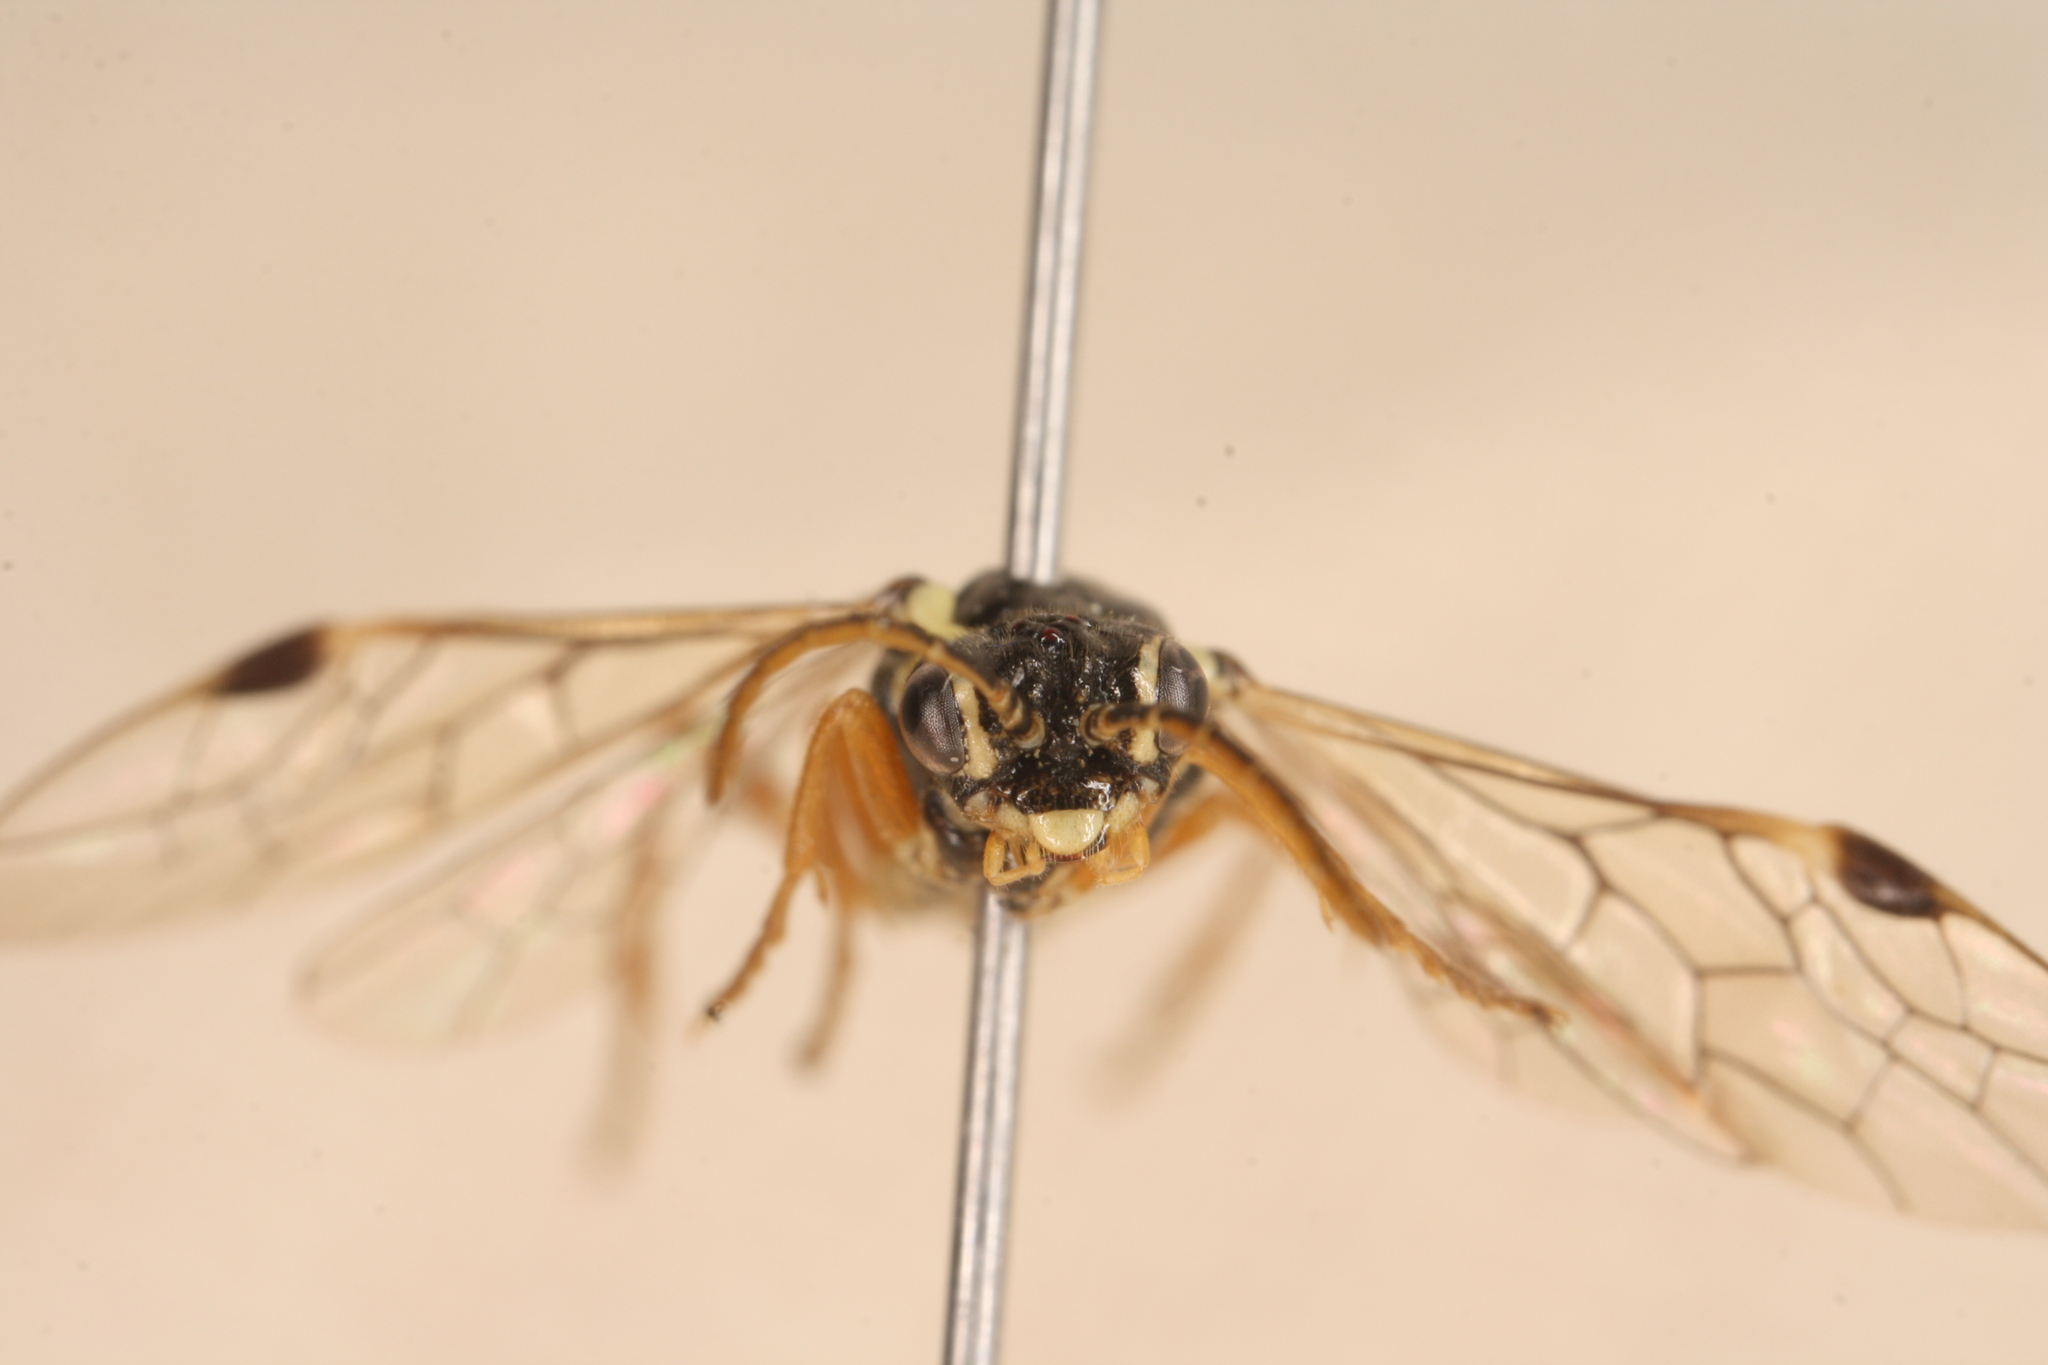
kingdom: Animalia
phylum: Arthropoda
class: Insecta
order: Hymenoptera
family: Tenthredinidae
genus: Aglaostigma
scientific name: Aglaostigma fulvipes
